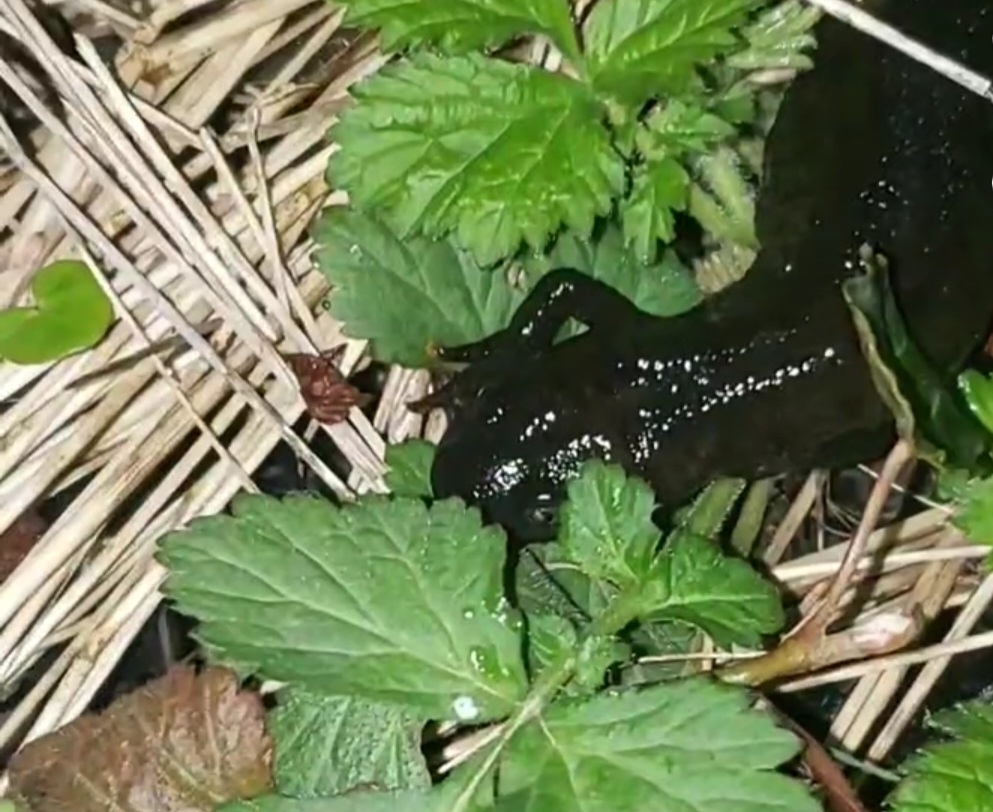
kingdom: Animalia
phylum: Chordata
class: Amphibia
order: Caudata
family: Salamandridae
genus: Triturus
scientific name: Triturus cristatus
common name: Crested newt
